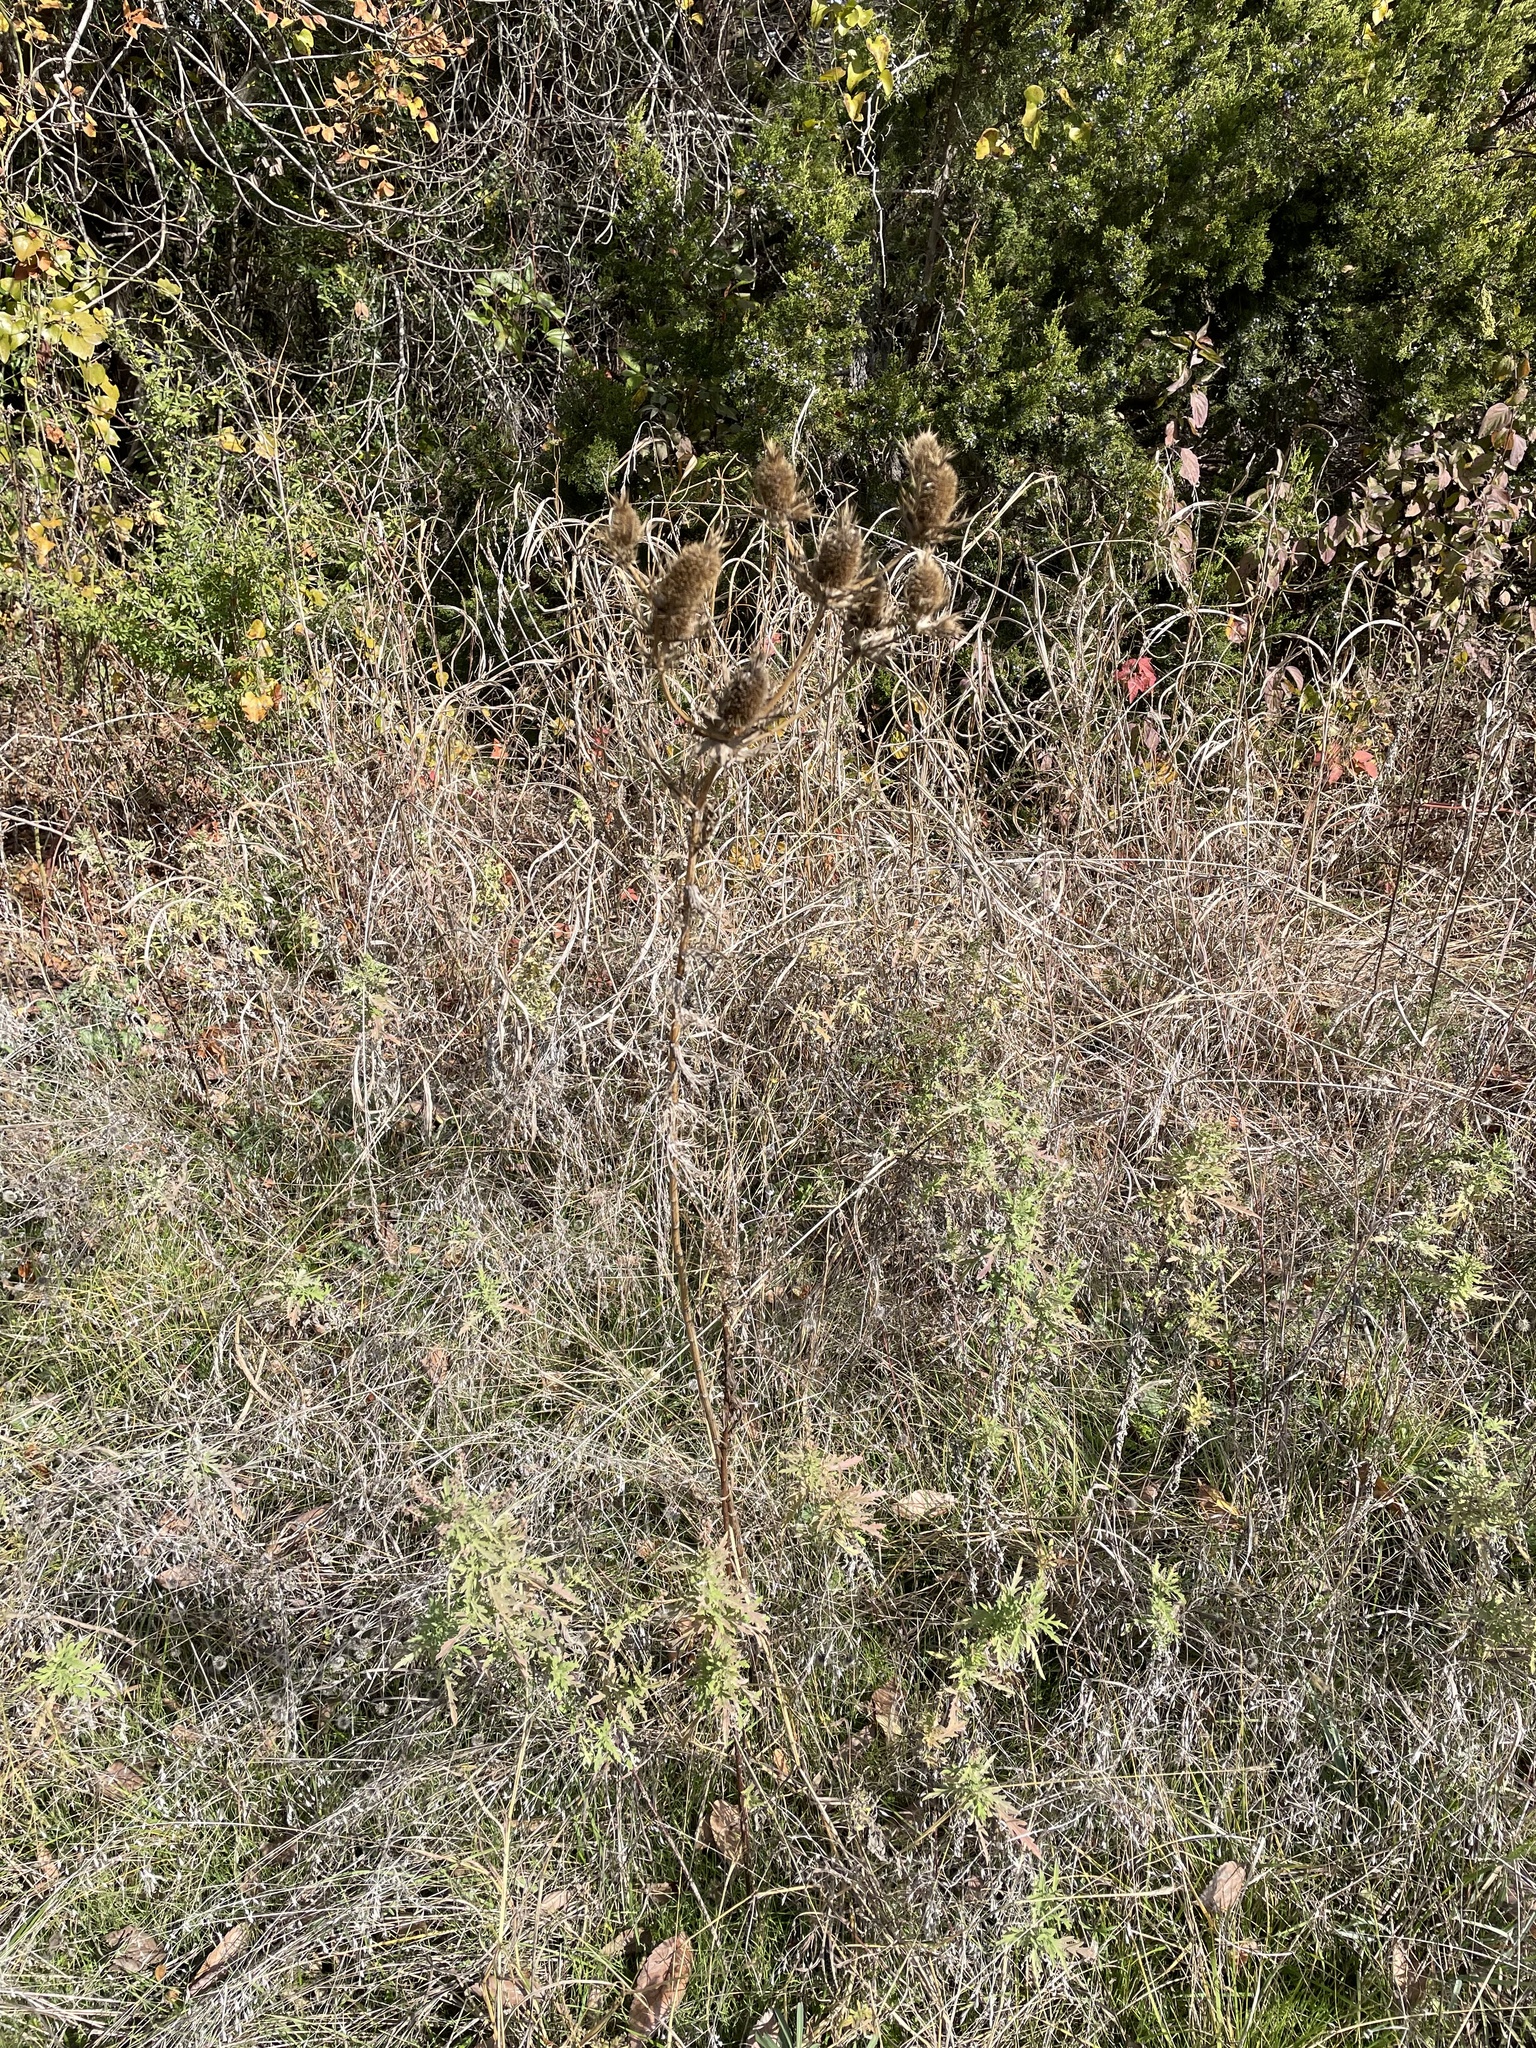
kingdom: Plantae
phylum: Tracheophyta
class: Magnoliopsida
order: Apiales
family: Apiaceae
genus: Eryngium
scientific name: Eryngium leavenworthii
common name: Leavenworth's eryngo
